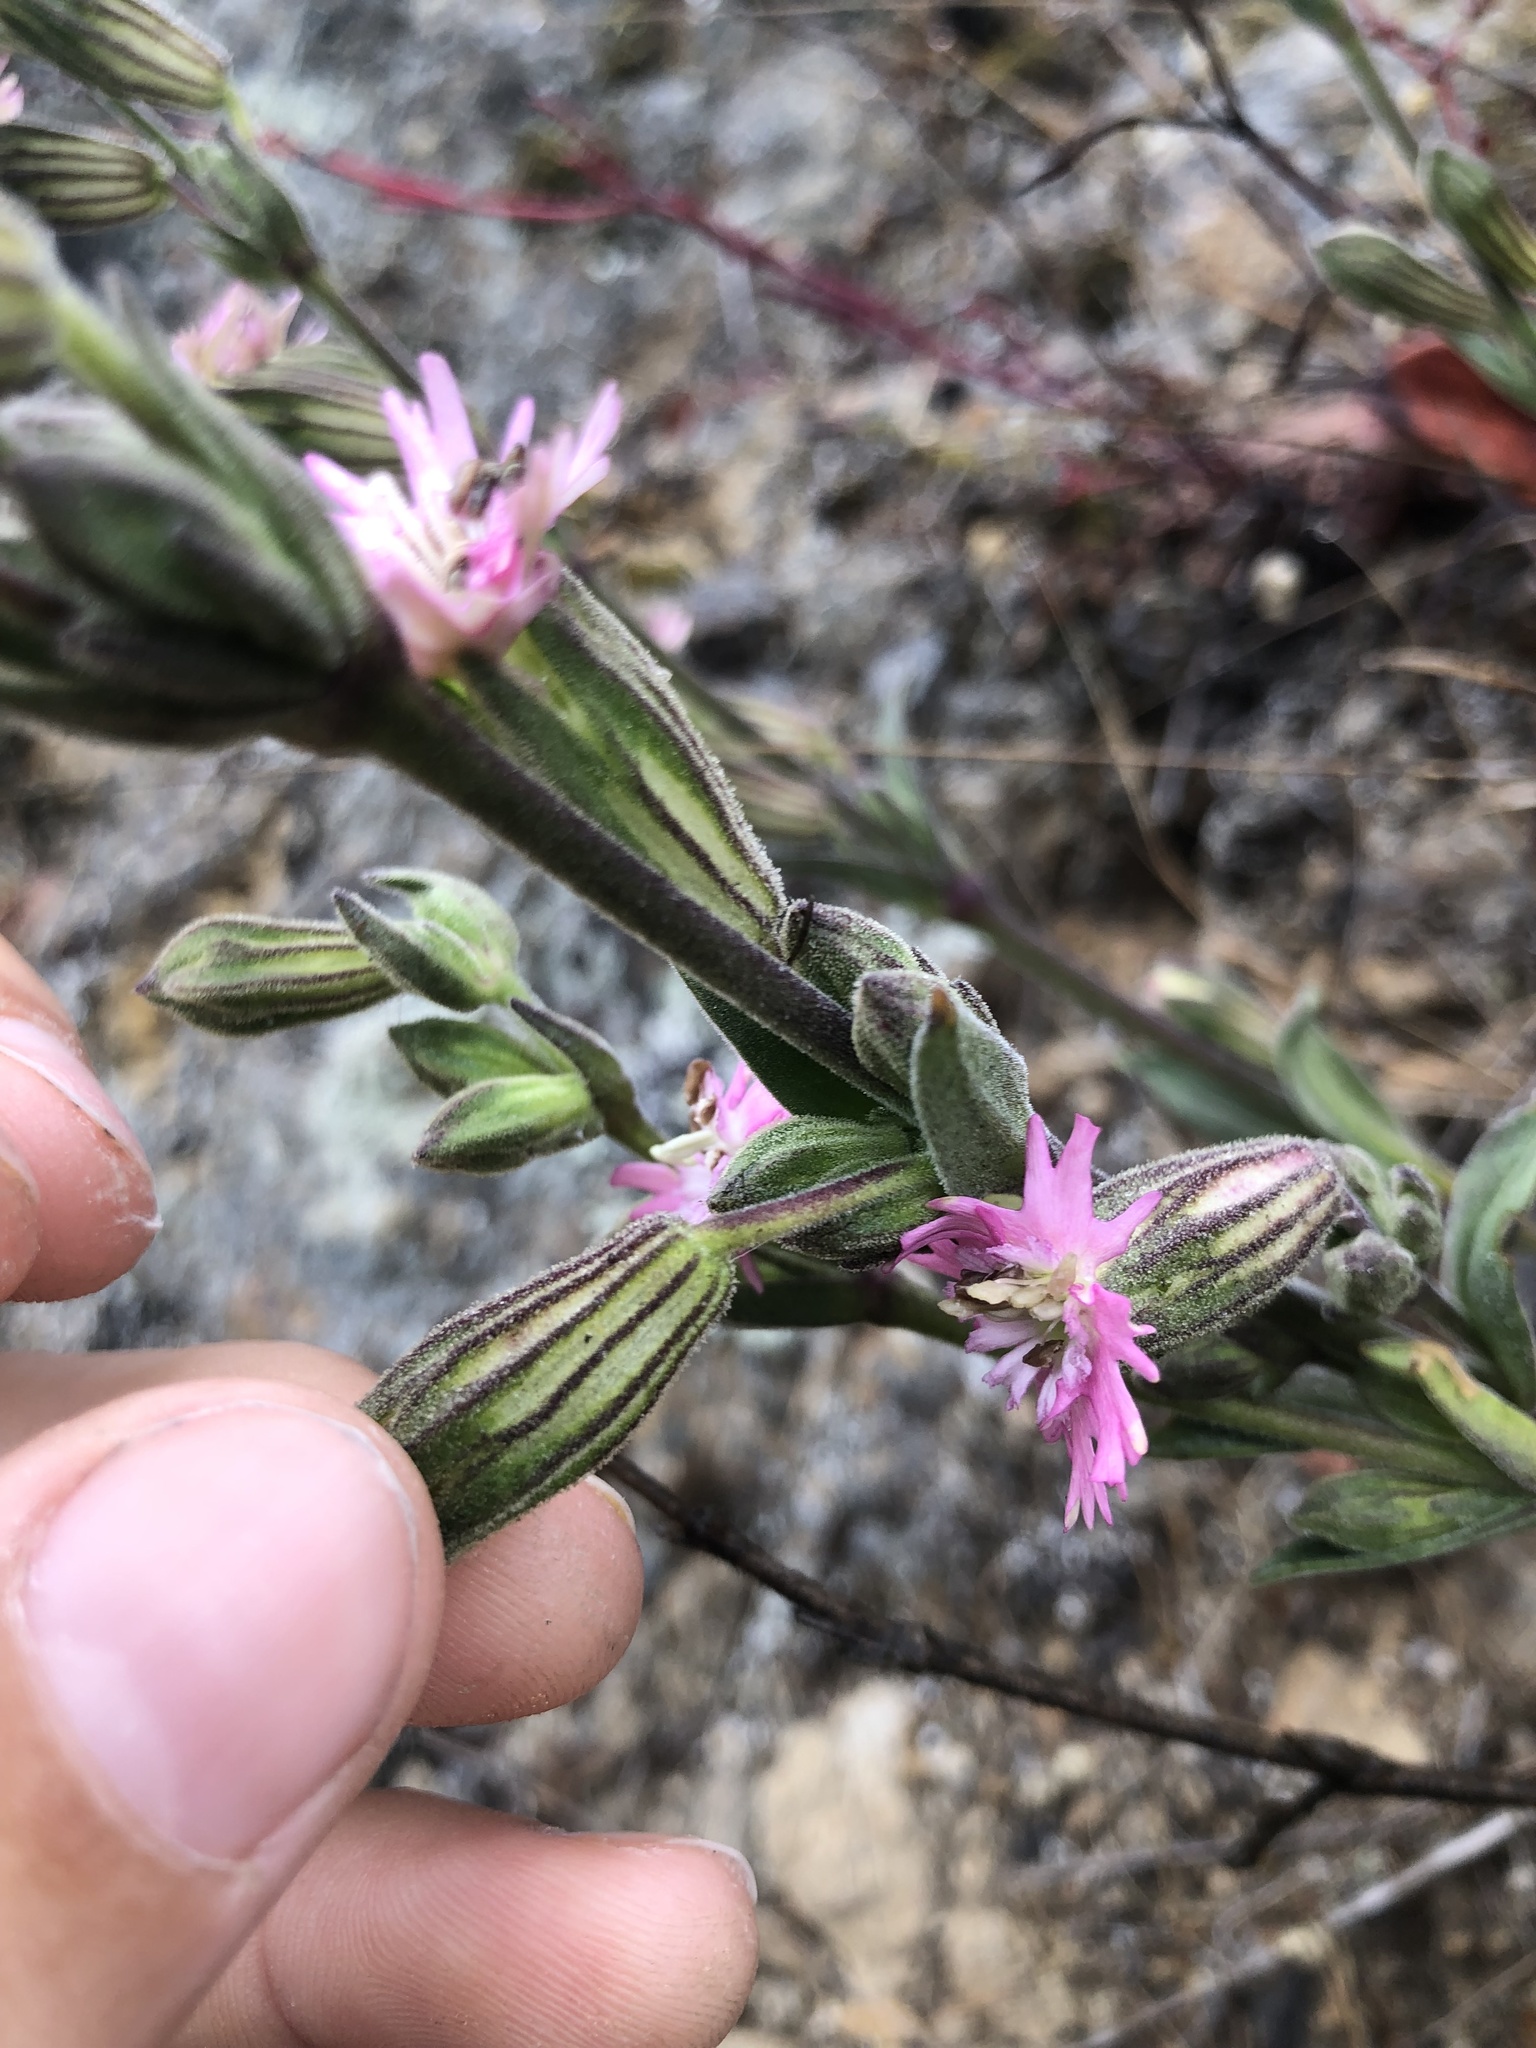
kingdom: Plantae
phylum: Tracheophyta
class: Magnoliopsida
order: Caryophyllales
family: Caryophyllaceae
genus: Silene
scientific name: Silene scouleri
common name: Scouler's campion
